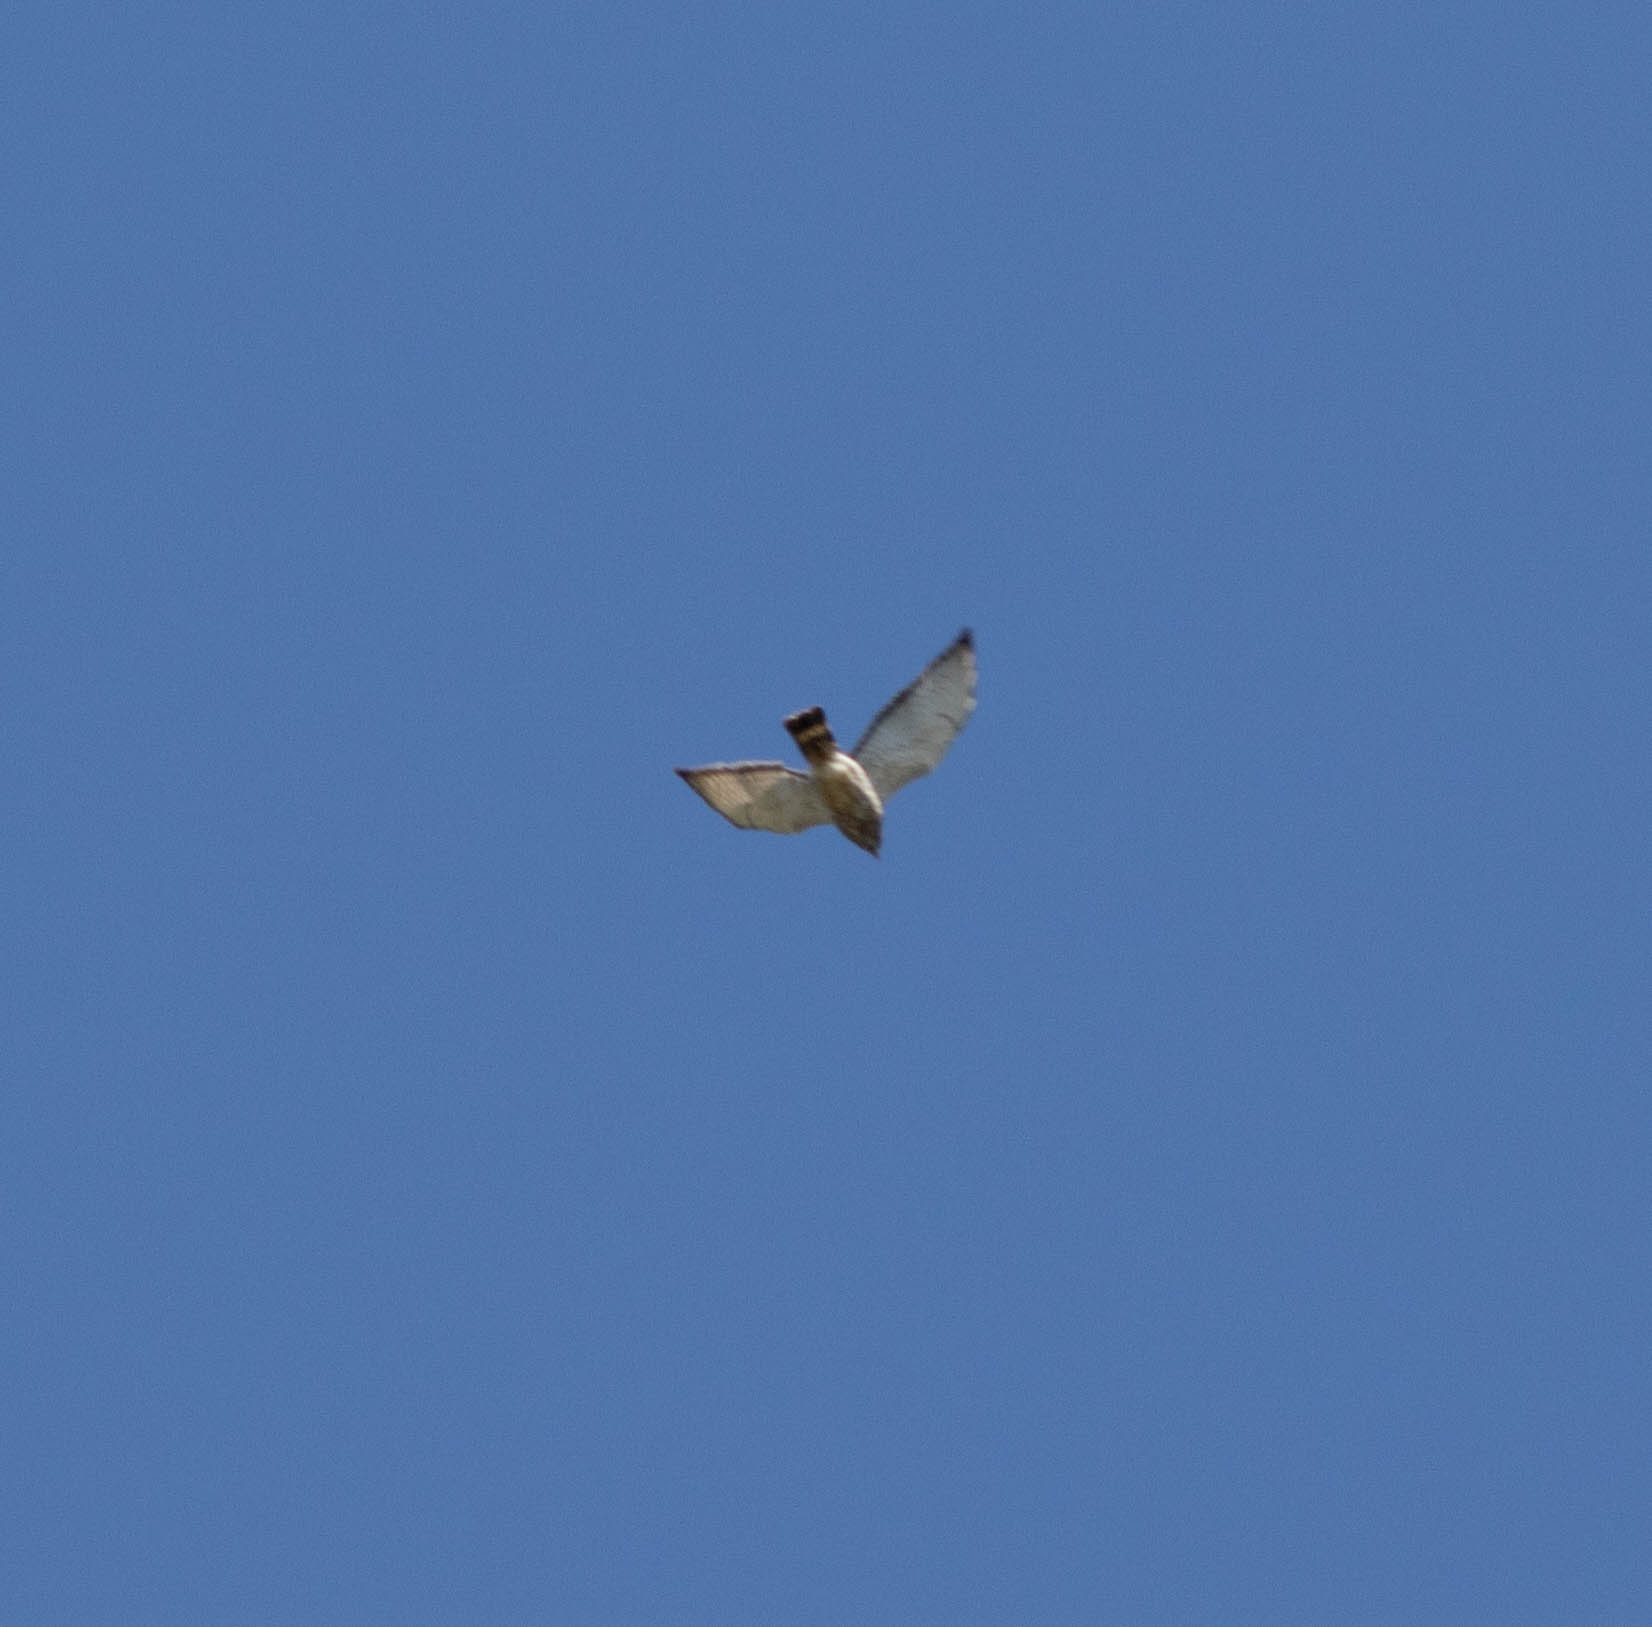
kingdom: Animalia
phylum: Chordata
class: Aves
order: Accipitriformes
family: Accipitridae
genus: Buteo
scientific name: Buteo platypterus
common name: Broad-winged hawk
